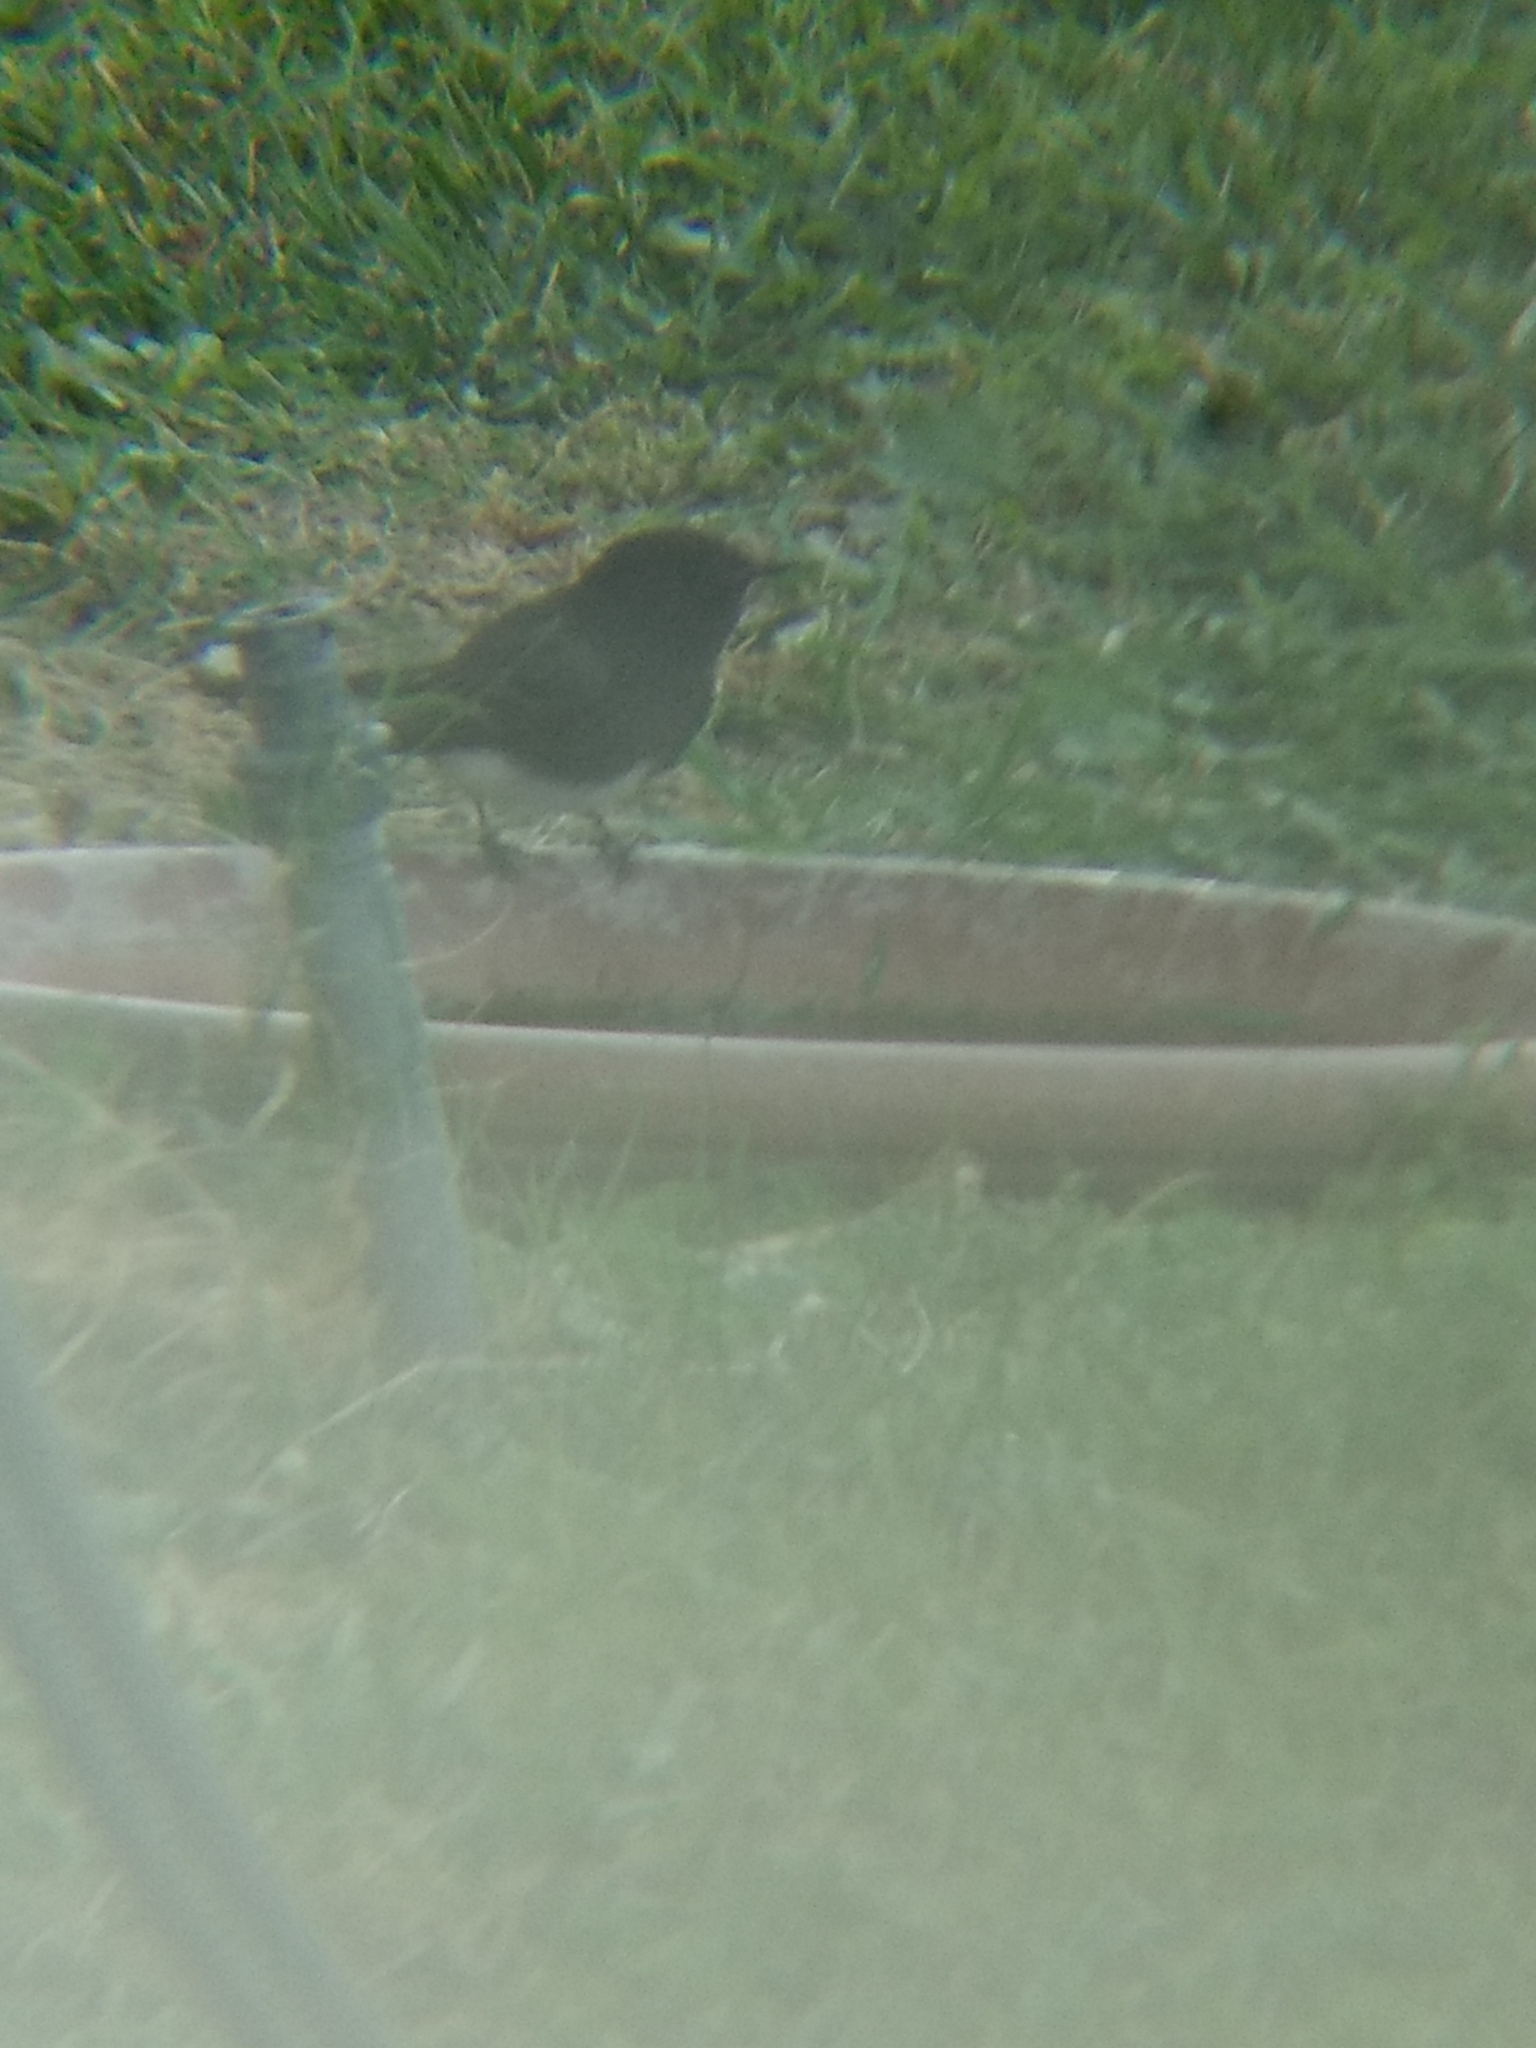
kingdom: Animalia
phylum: Chordata
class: Aves
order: Passeriformes
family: Tyrannidae
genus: Sayornis
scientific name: Sayornis nigricans
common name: Black phoebe
